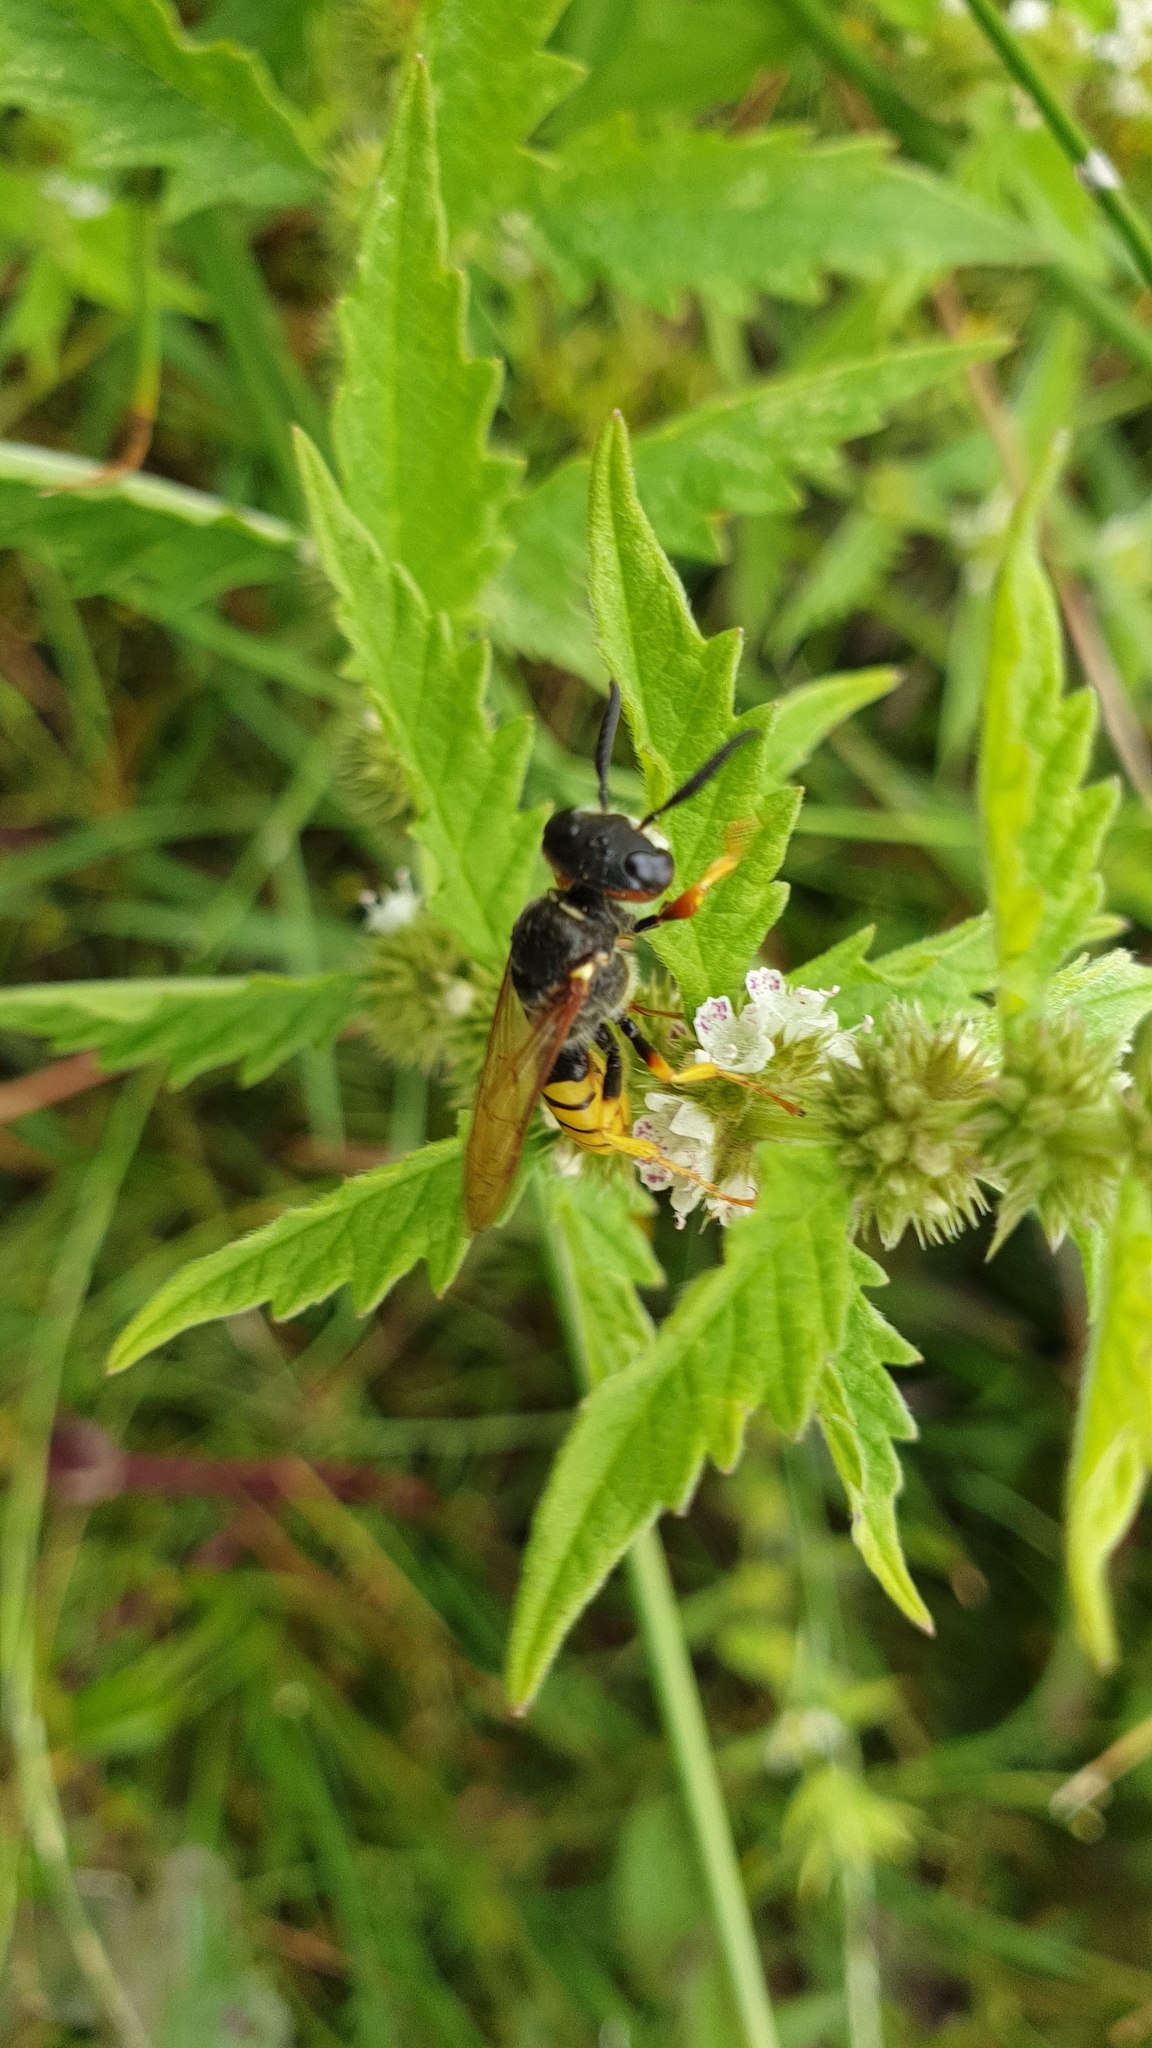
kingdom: Animalia
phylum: Arthropoda
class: Insecta
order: Hymenoptera
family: Crabronidae
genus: Philanthus
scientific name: Philanthus triangulum
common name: Bee wolf
